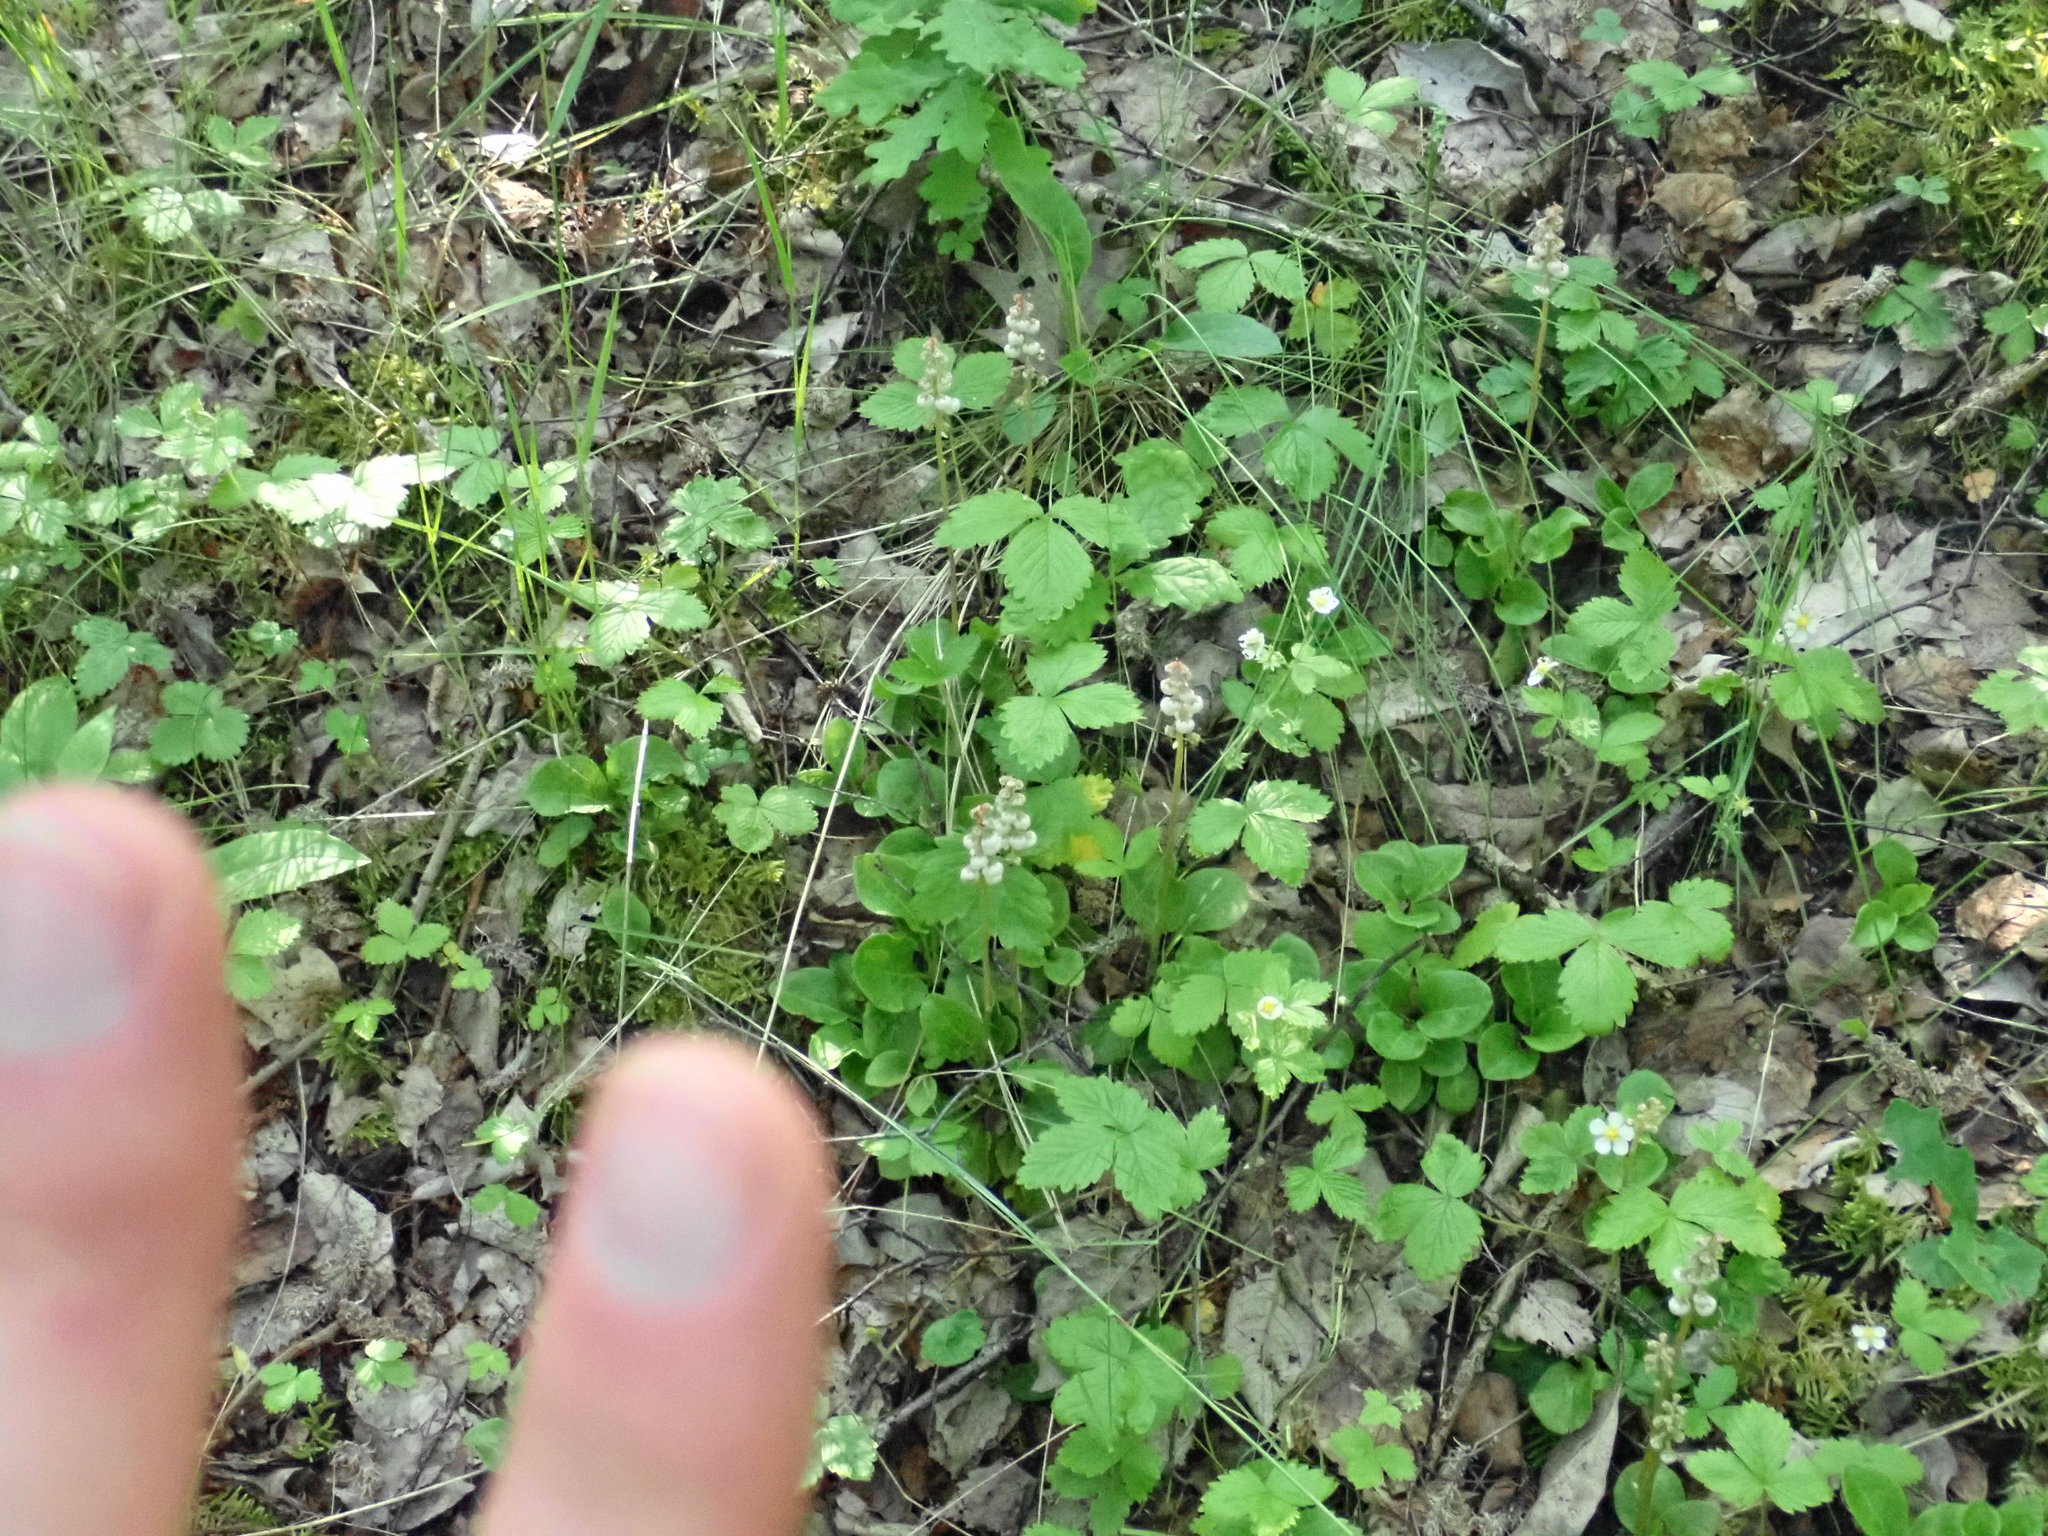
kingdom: Plantae
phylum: Tracheophyta
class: Magnoliopsida
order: Ericales
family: Ericaceae
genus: Pyrola
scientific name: Pyrola minor
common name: Common wintergreen
